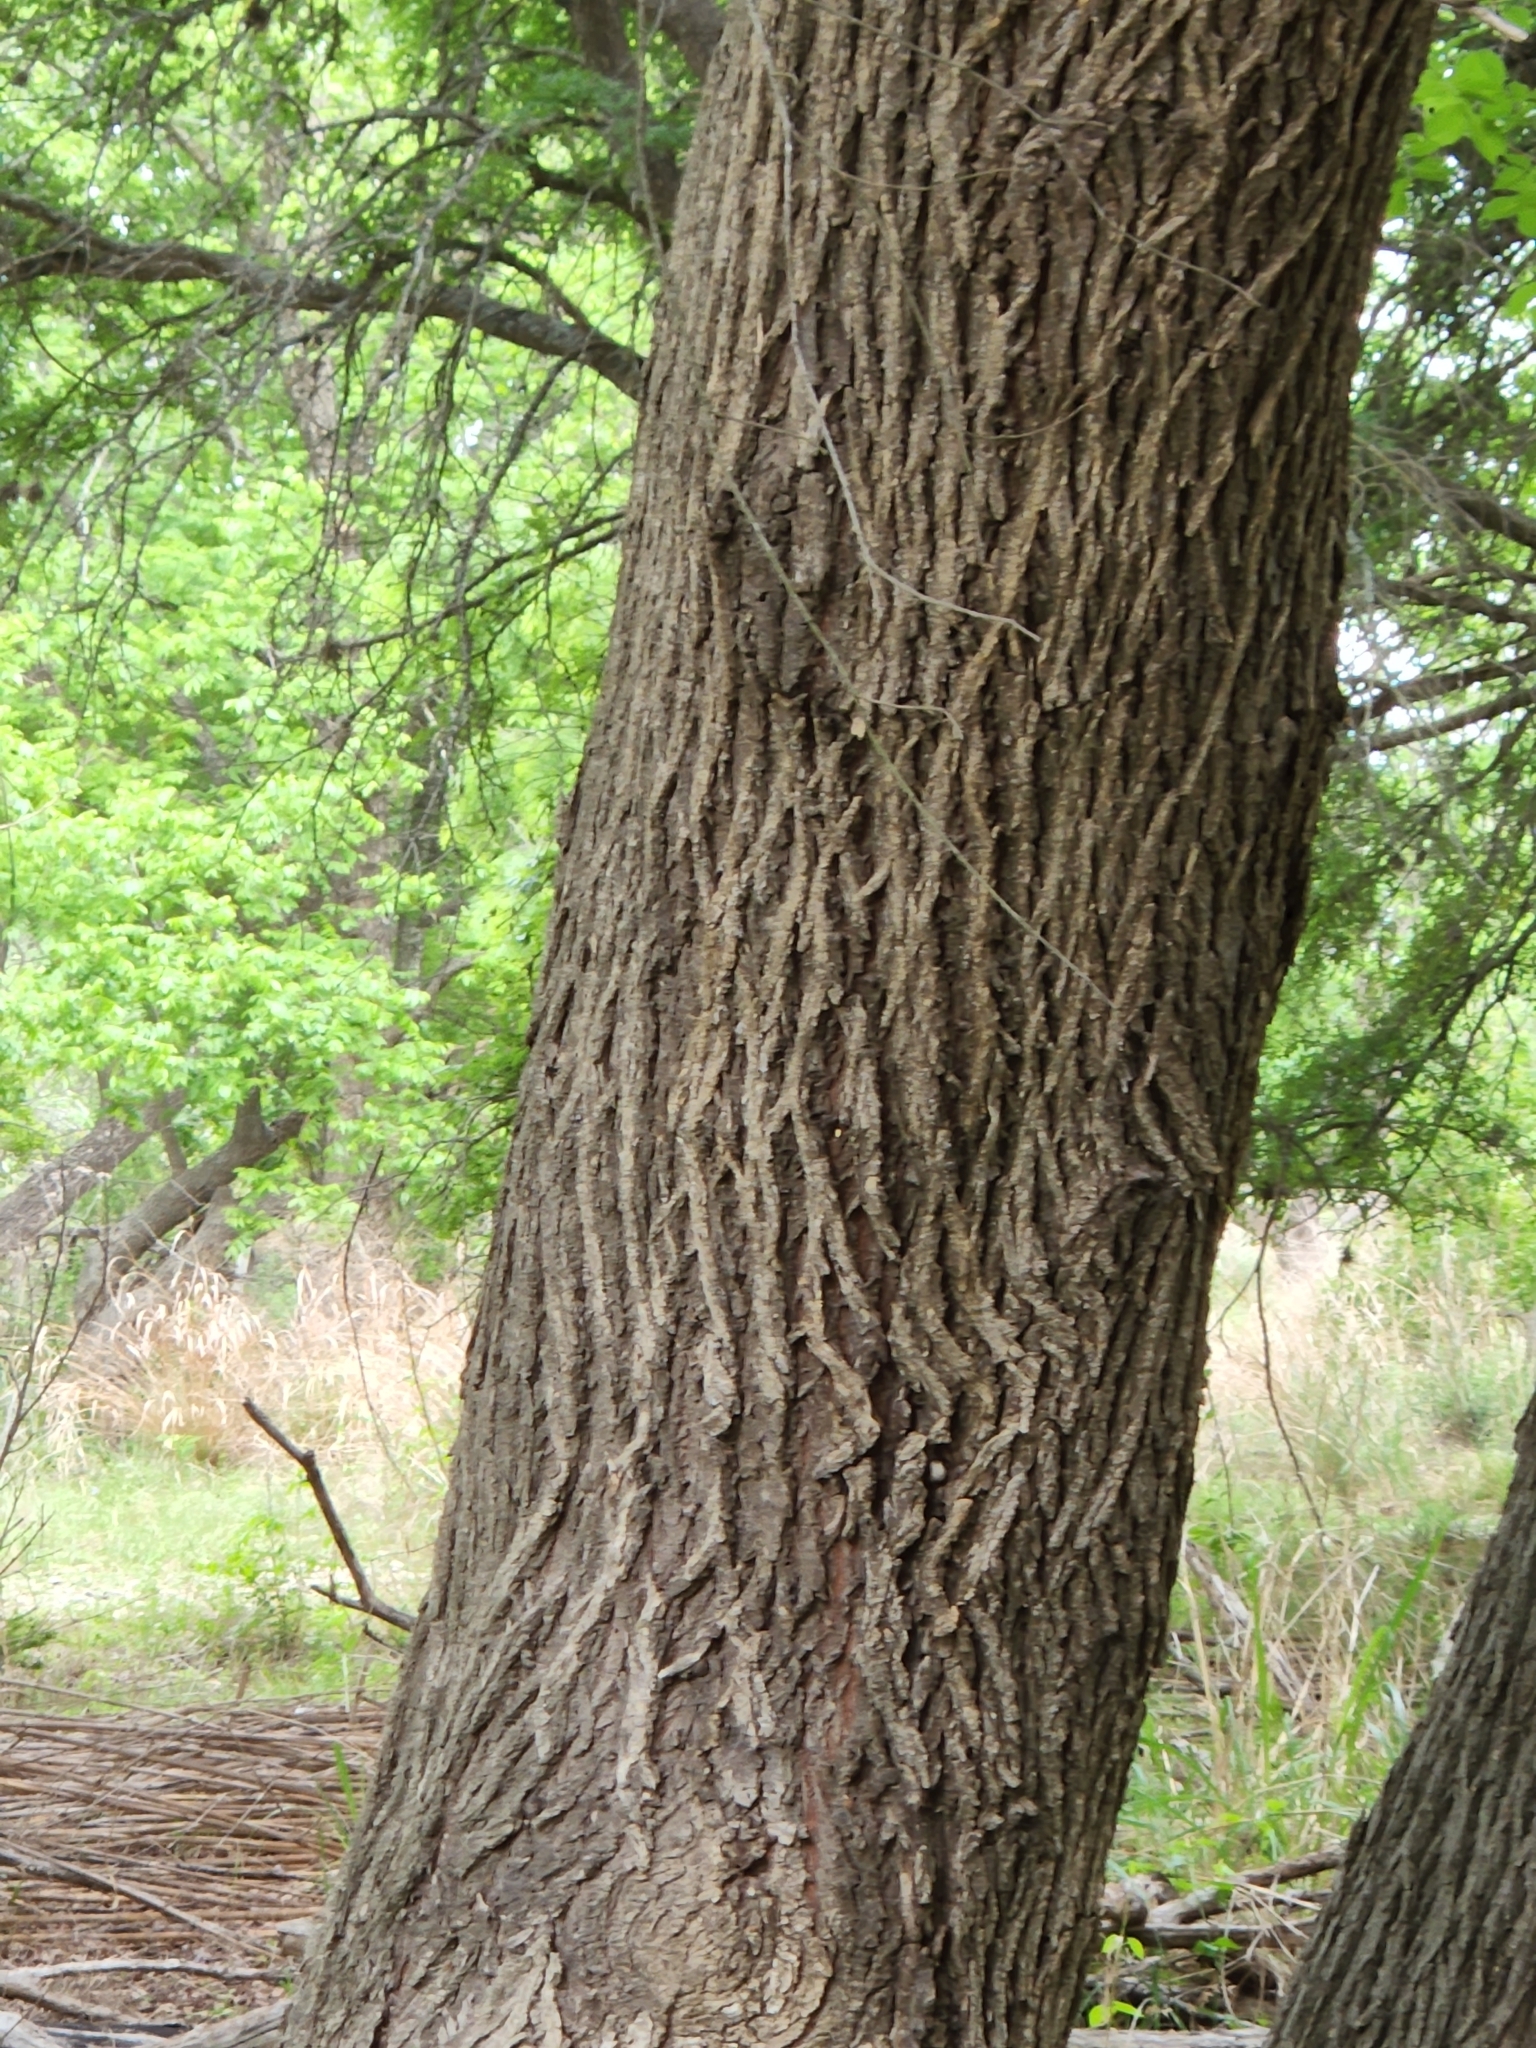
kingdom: Plantae
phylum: Tracheophyta
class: Magnoliopsida
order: Rosales
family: Ulmaceae
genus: Ulmus
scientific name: Ulmus americana
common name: American elm
